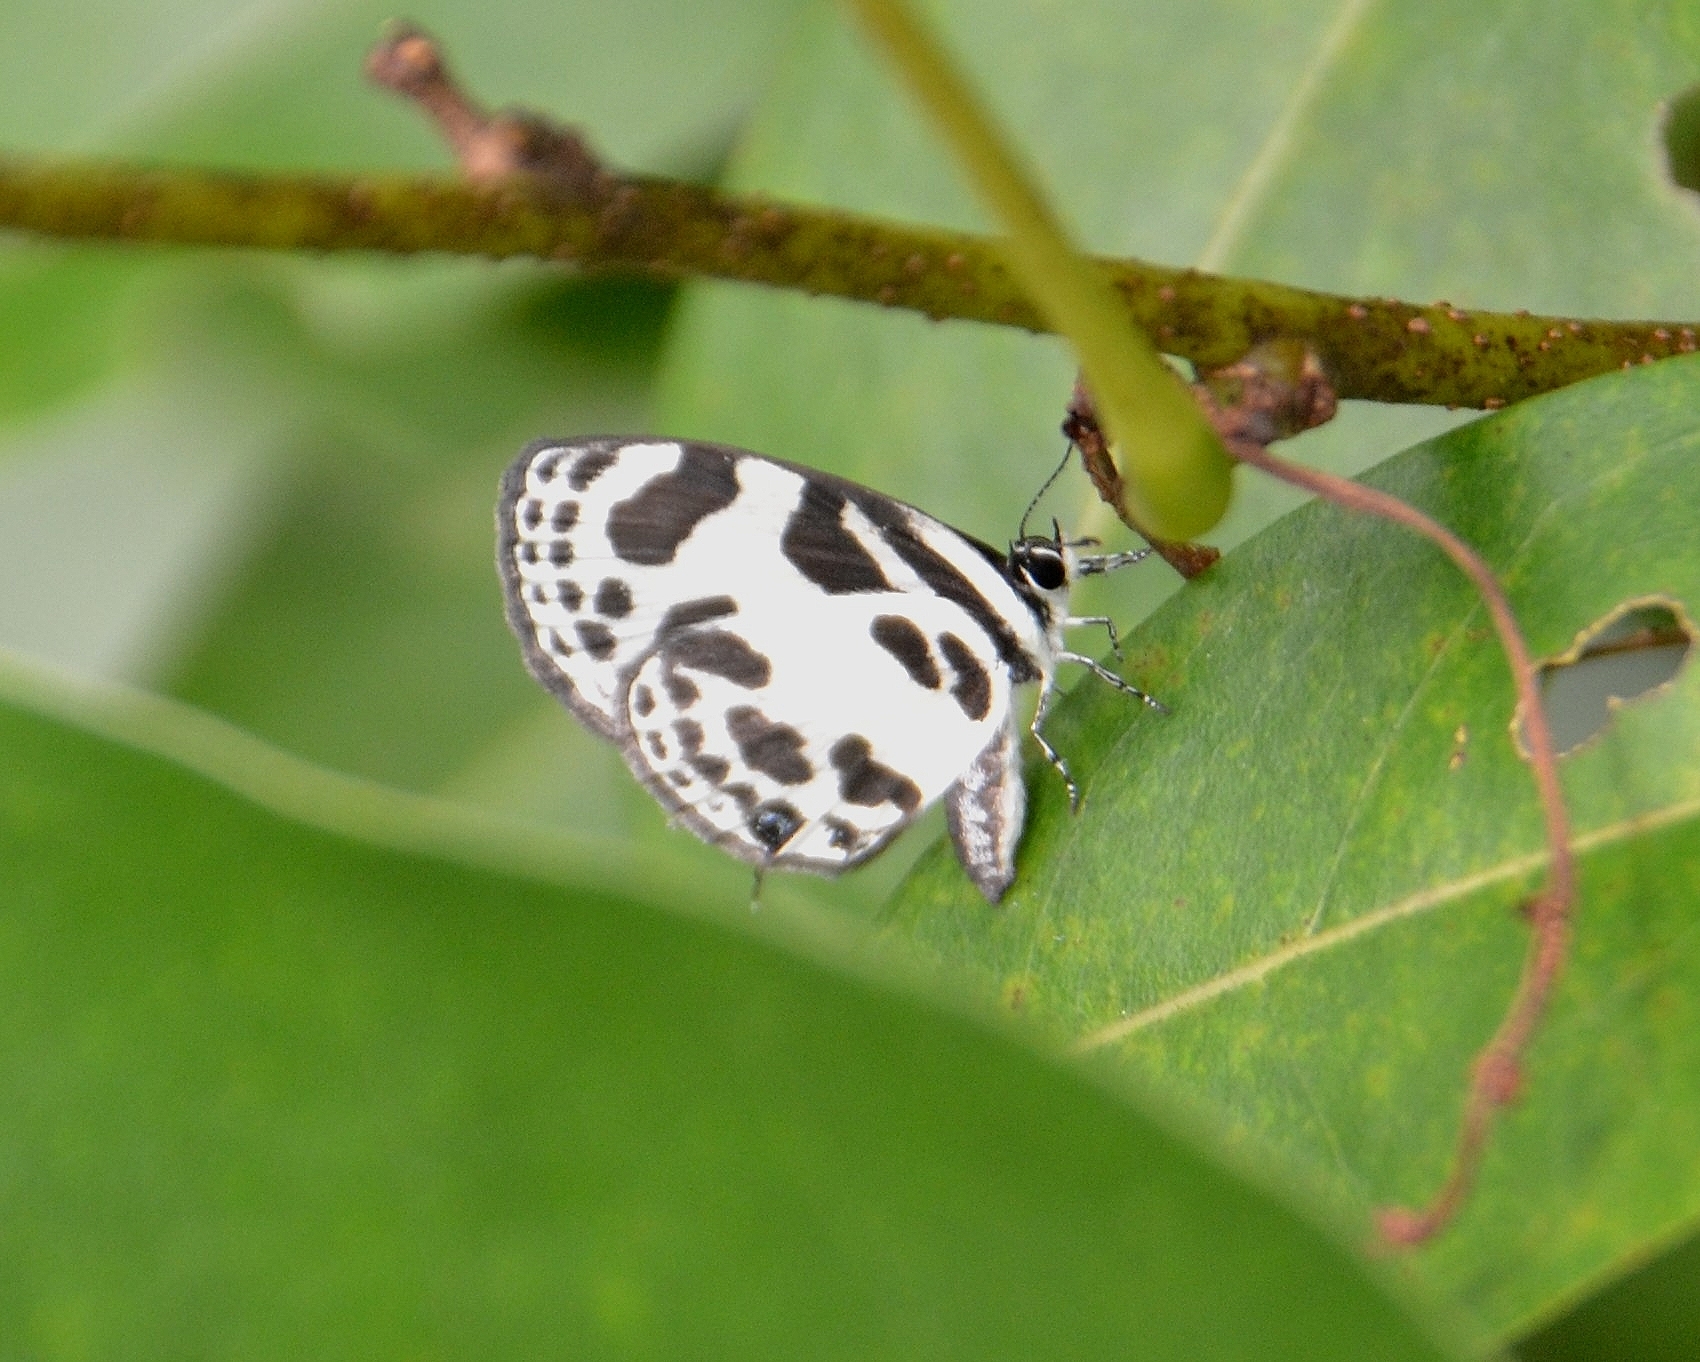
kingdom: Animalia
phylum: Arthropoda
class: Insecta
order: Lepidoptera
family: Lycaenidae
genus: Discolampa
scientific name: Discolampa ethion
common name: Banded blue pierrot
